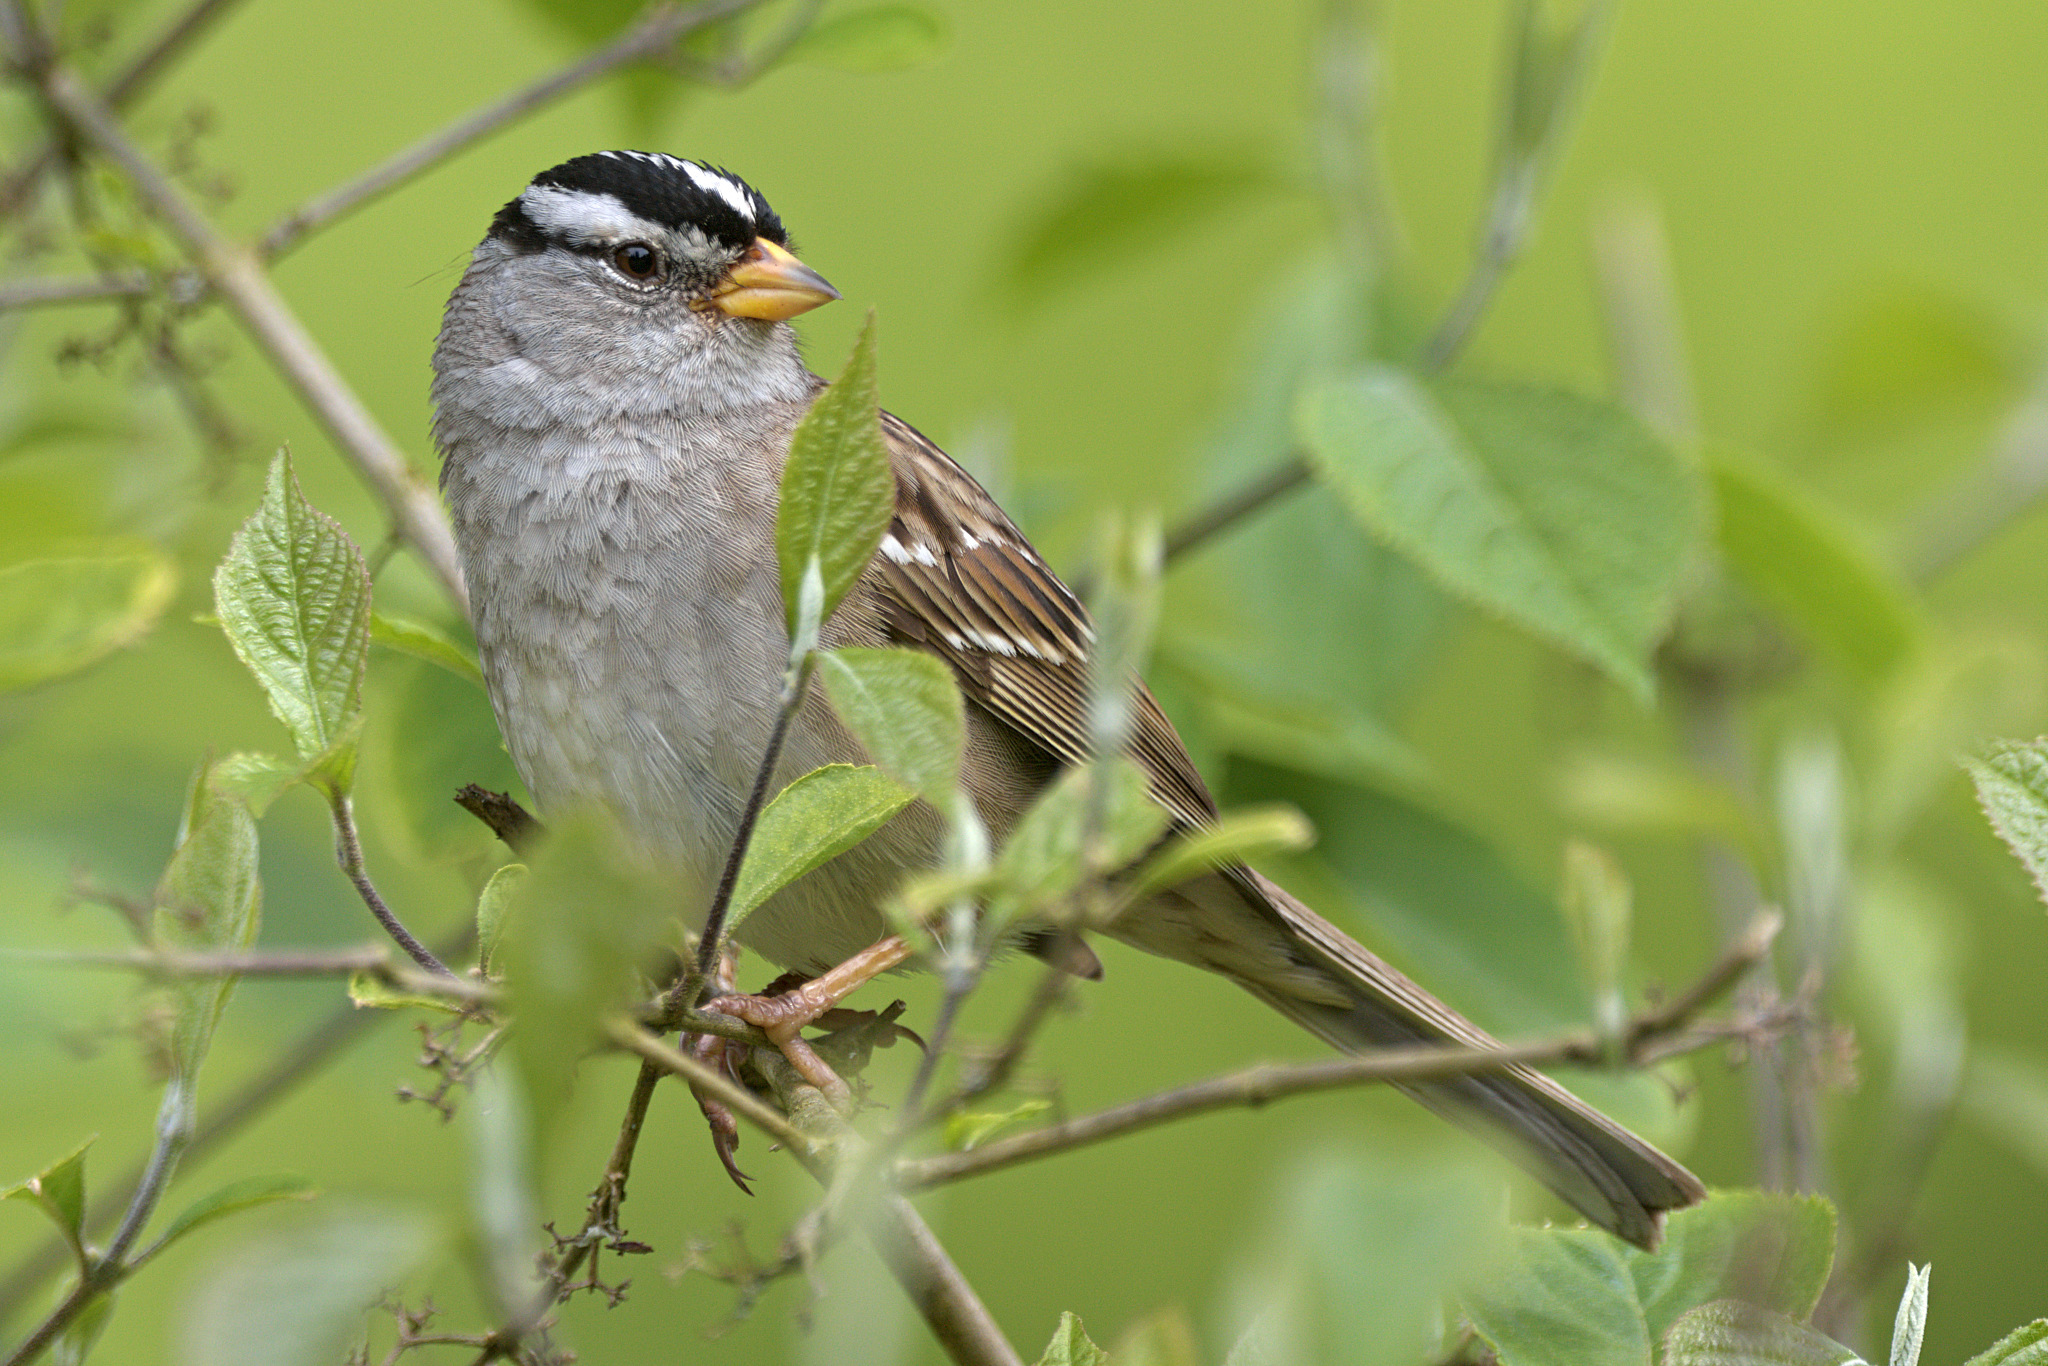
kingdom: Animalia
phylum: Chordata
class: Aves
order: Passeriformes
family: Passerellidae
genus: Zonotrichia
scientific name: Zonotrichia leucophrys
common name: White-crowned sparrow
